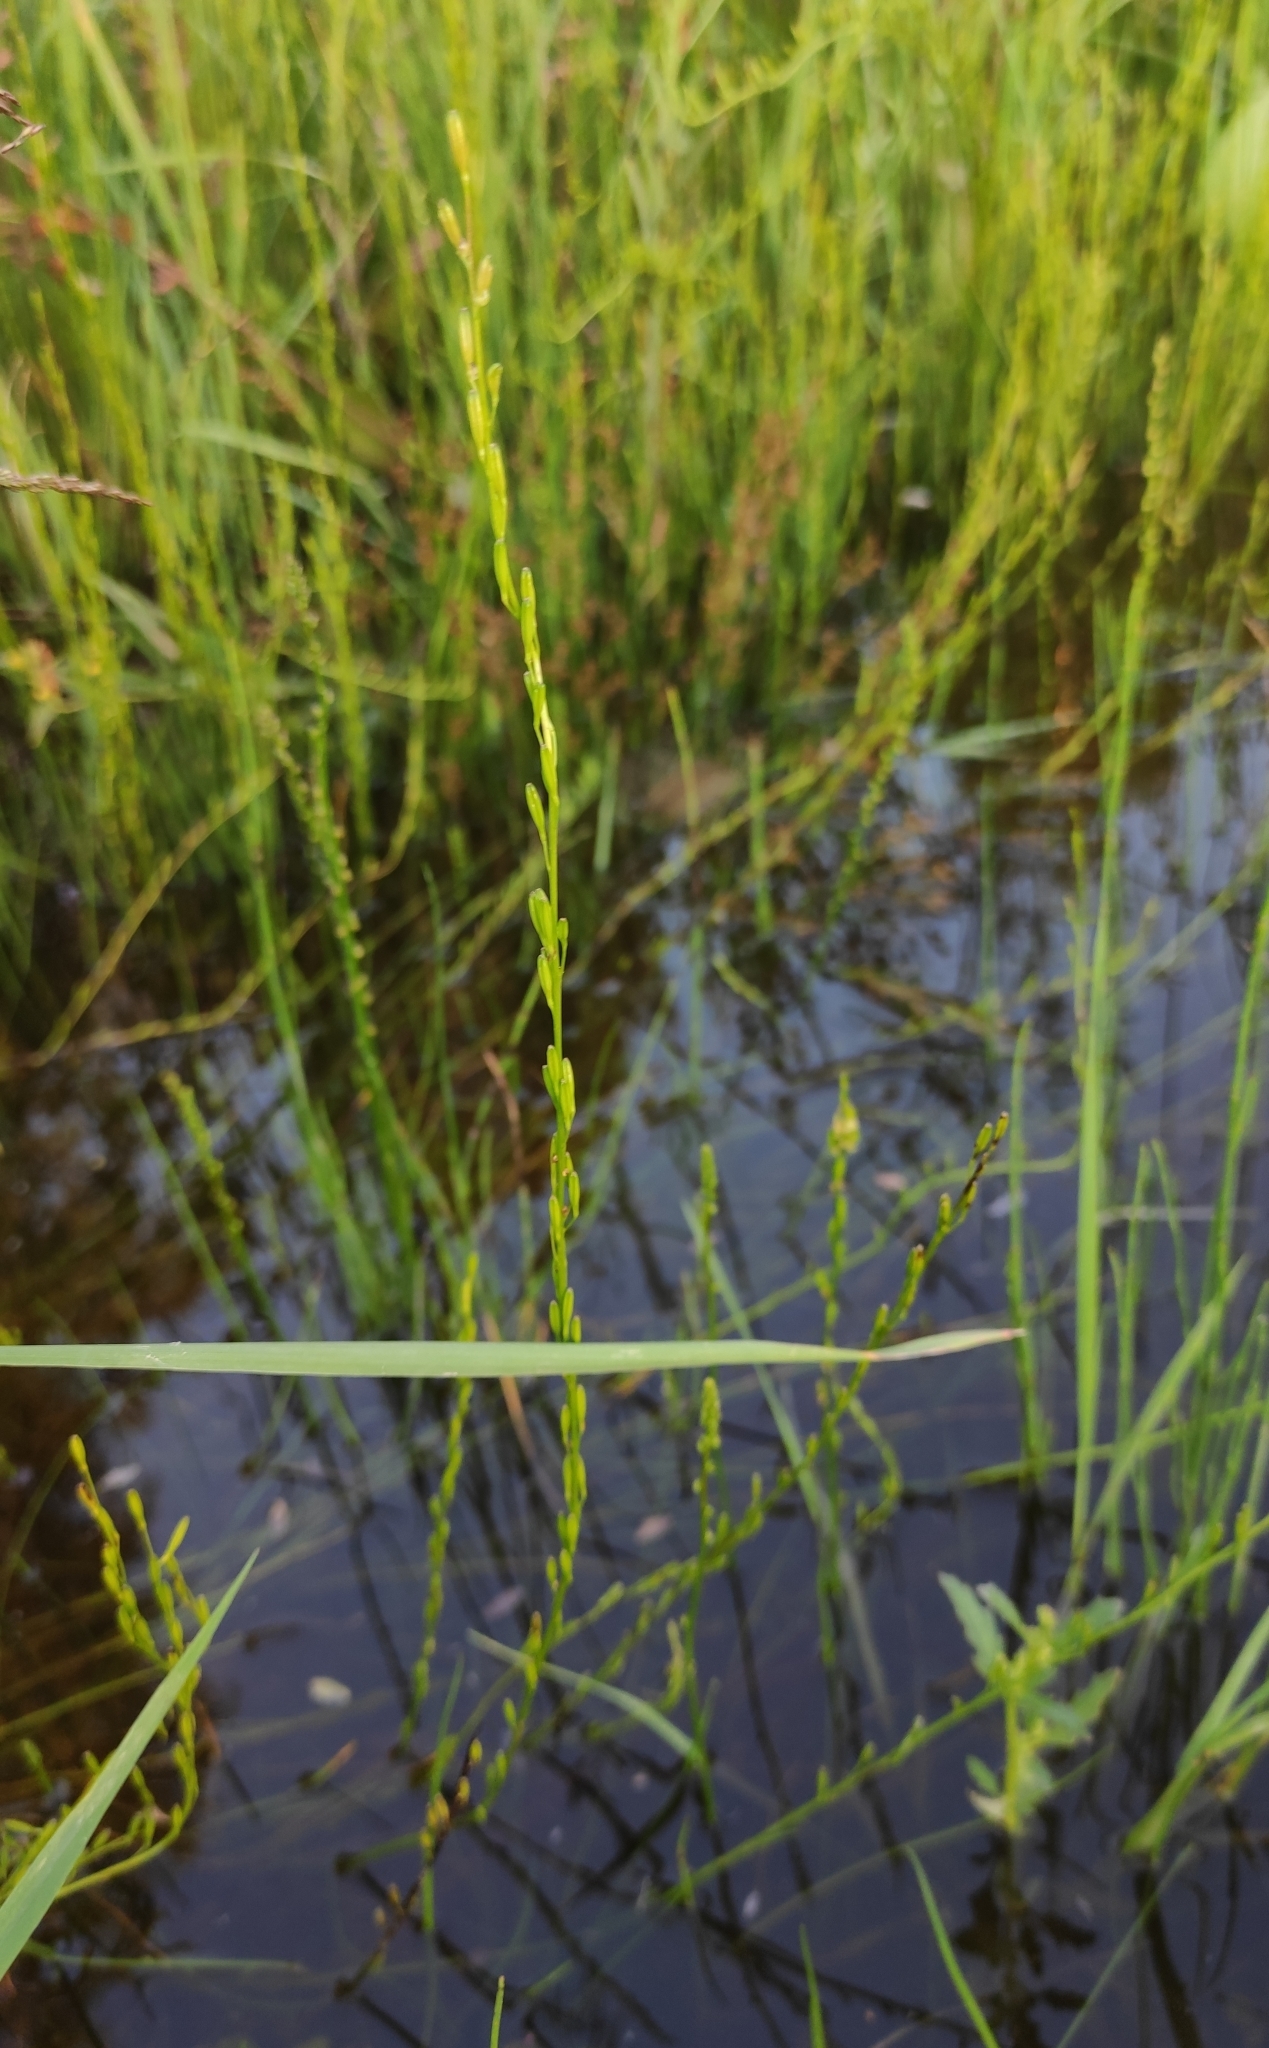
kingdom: Plantae
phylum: Tracheophyta
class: Liliopsida
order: Alismatales
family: Juncaginaceae
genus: Triglochin
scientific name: Triglochin palustris
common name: Marsh arrowgrass
